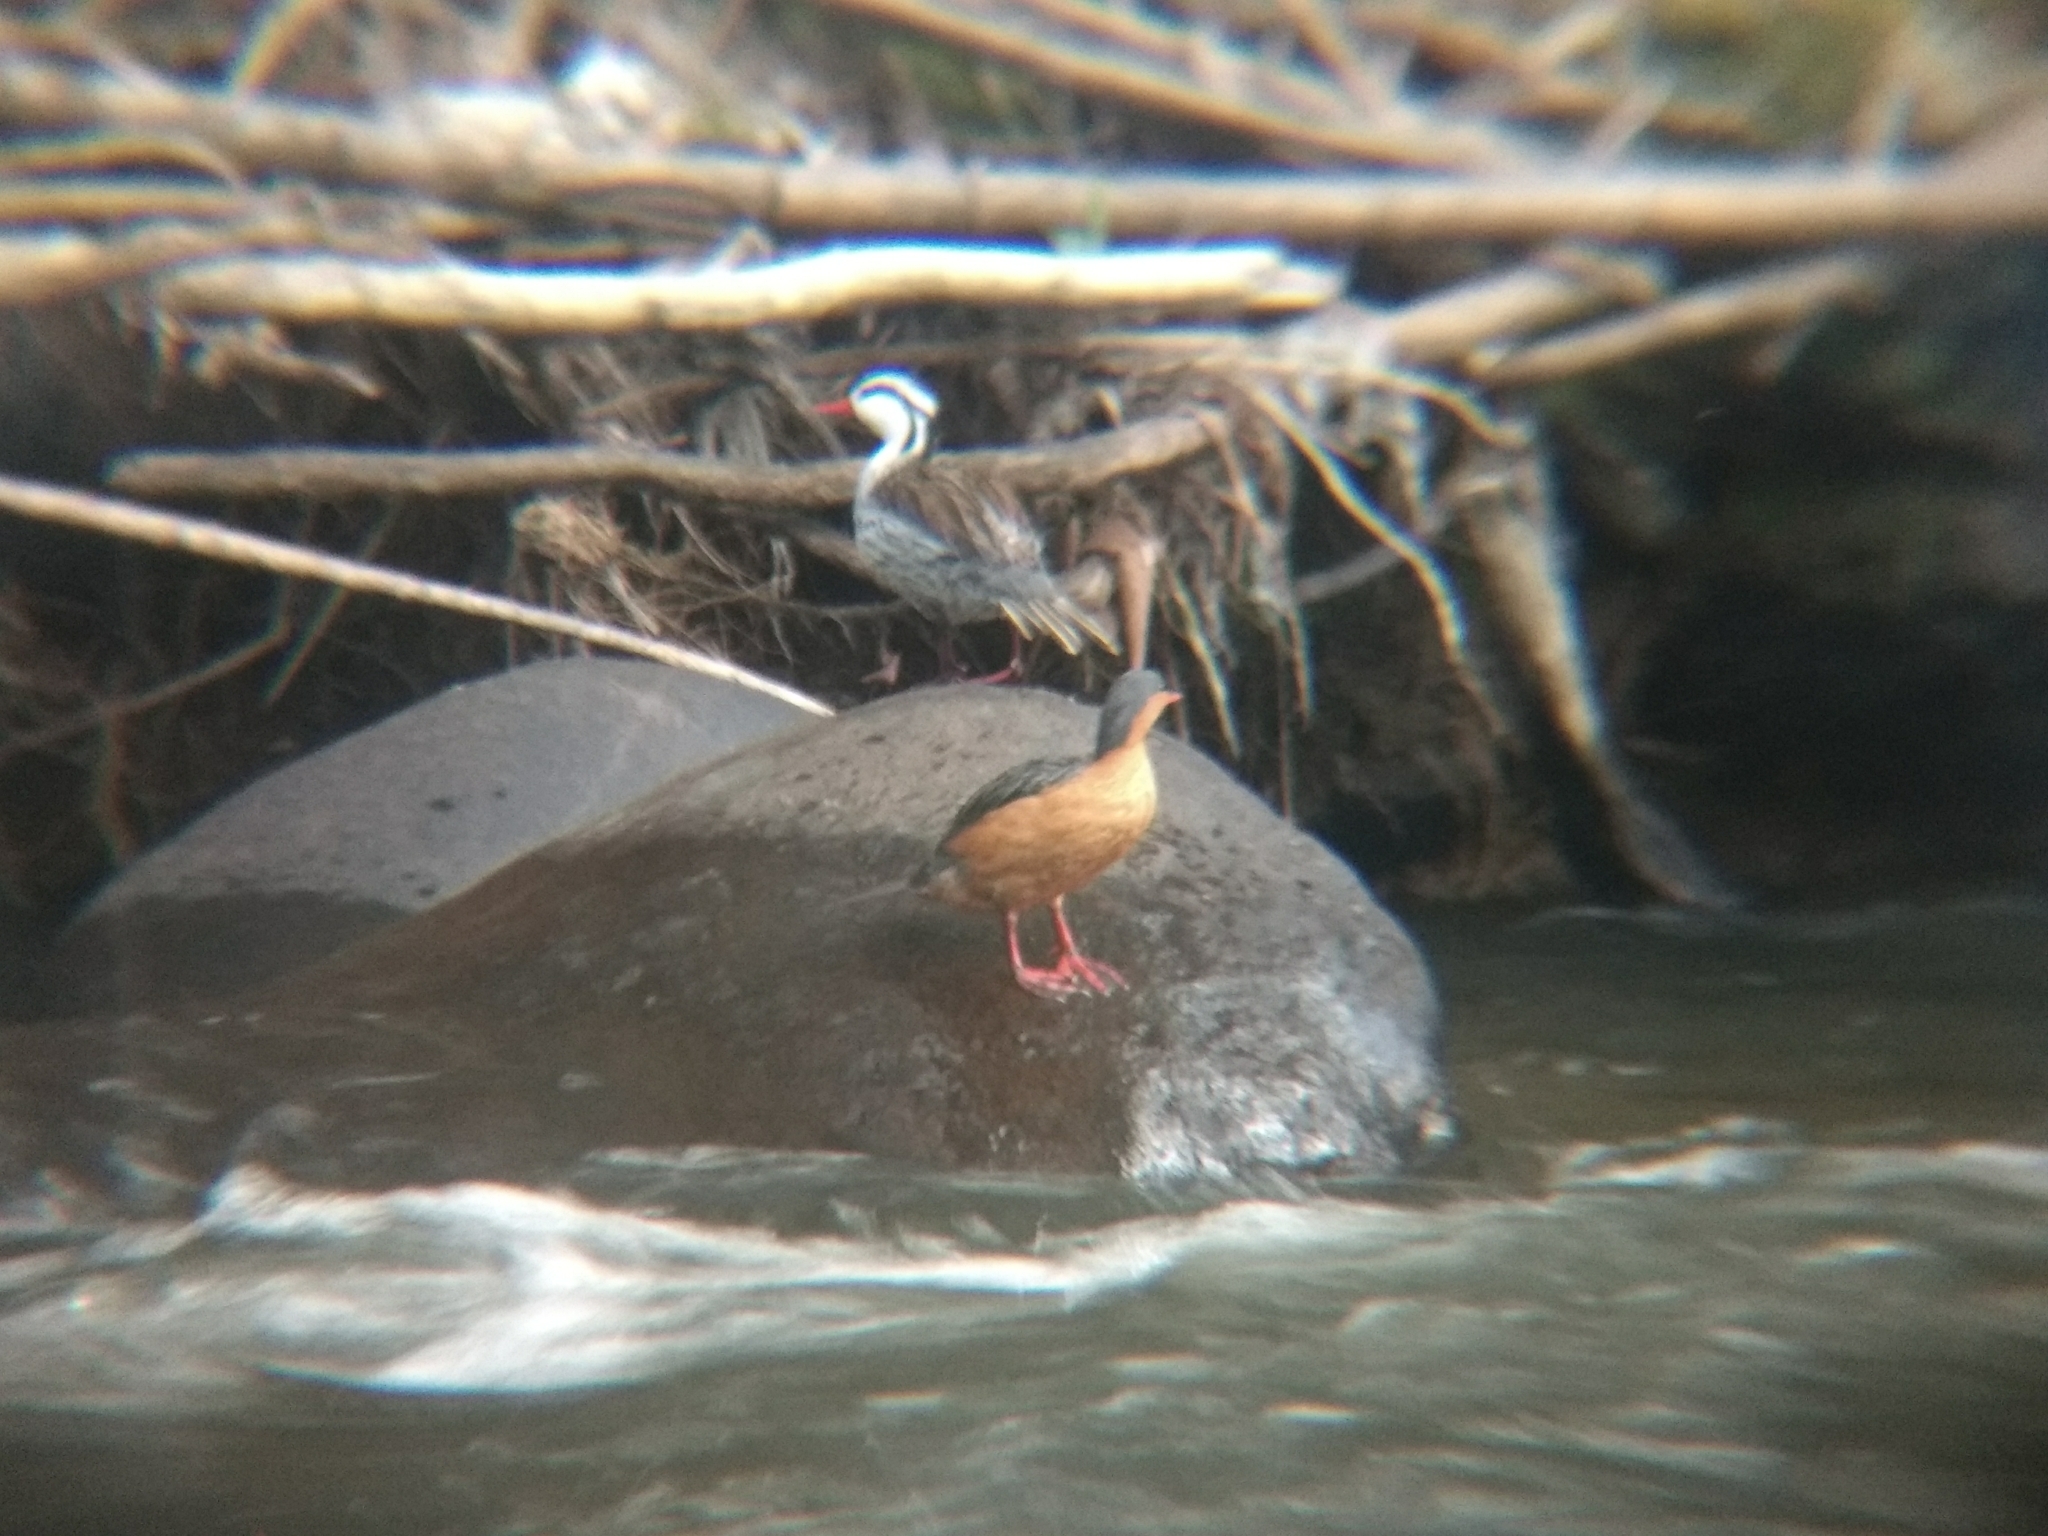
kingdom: Animalia
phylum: Chordata
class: Aves
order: Anseriformes
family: Anatidae
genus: Merganetta
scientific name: Merganetta armata
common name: Torrent duck
